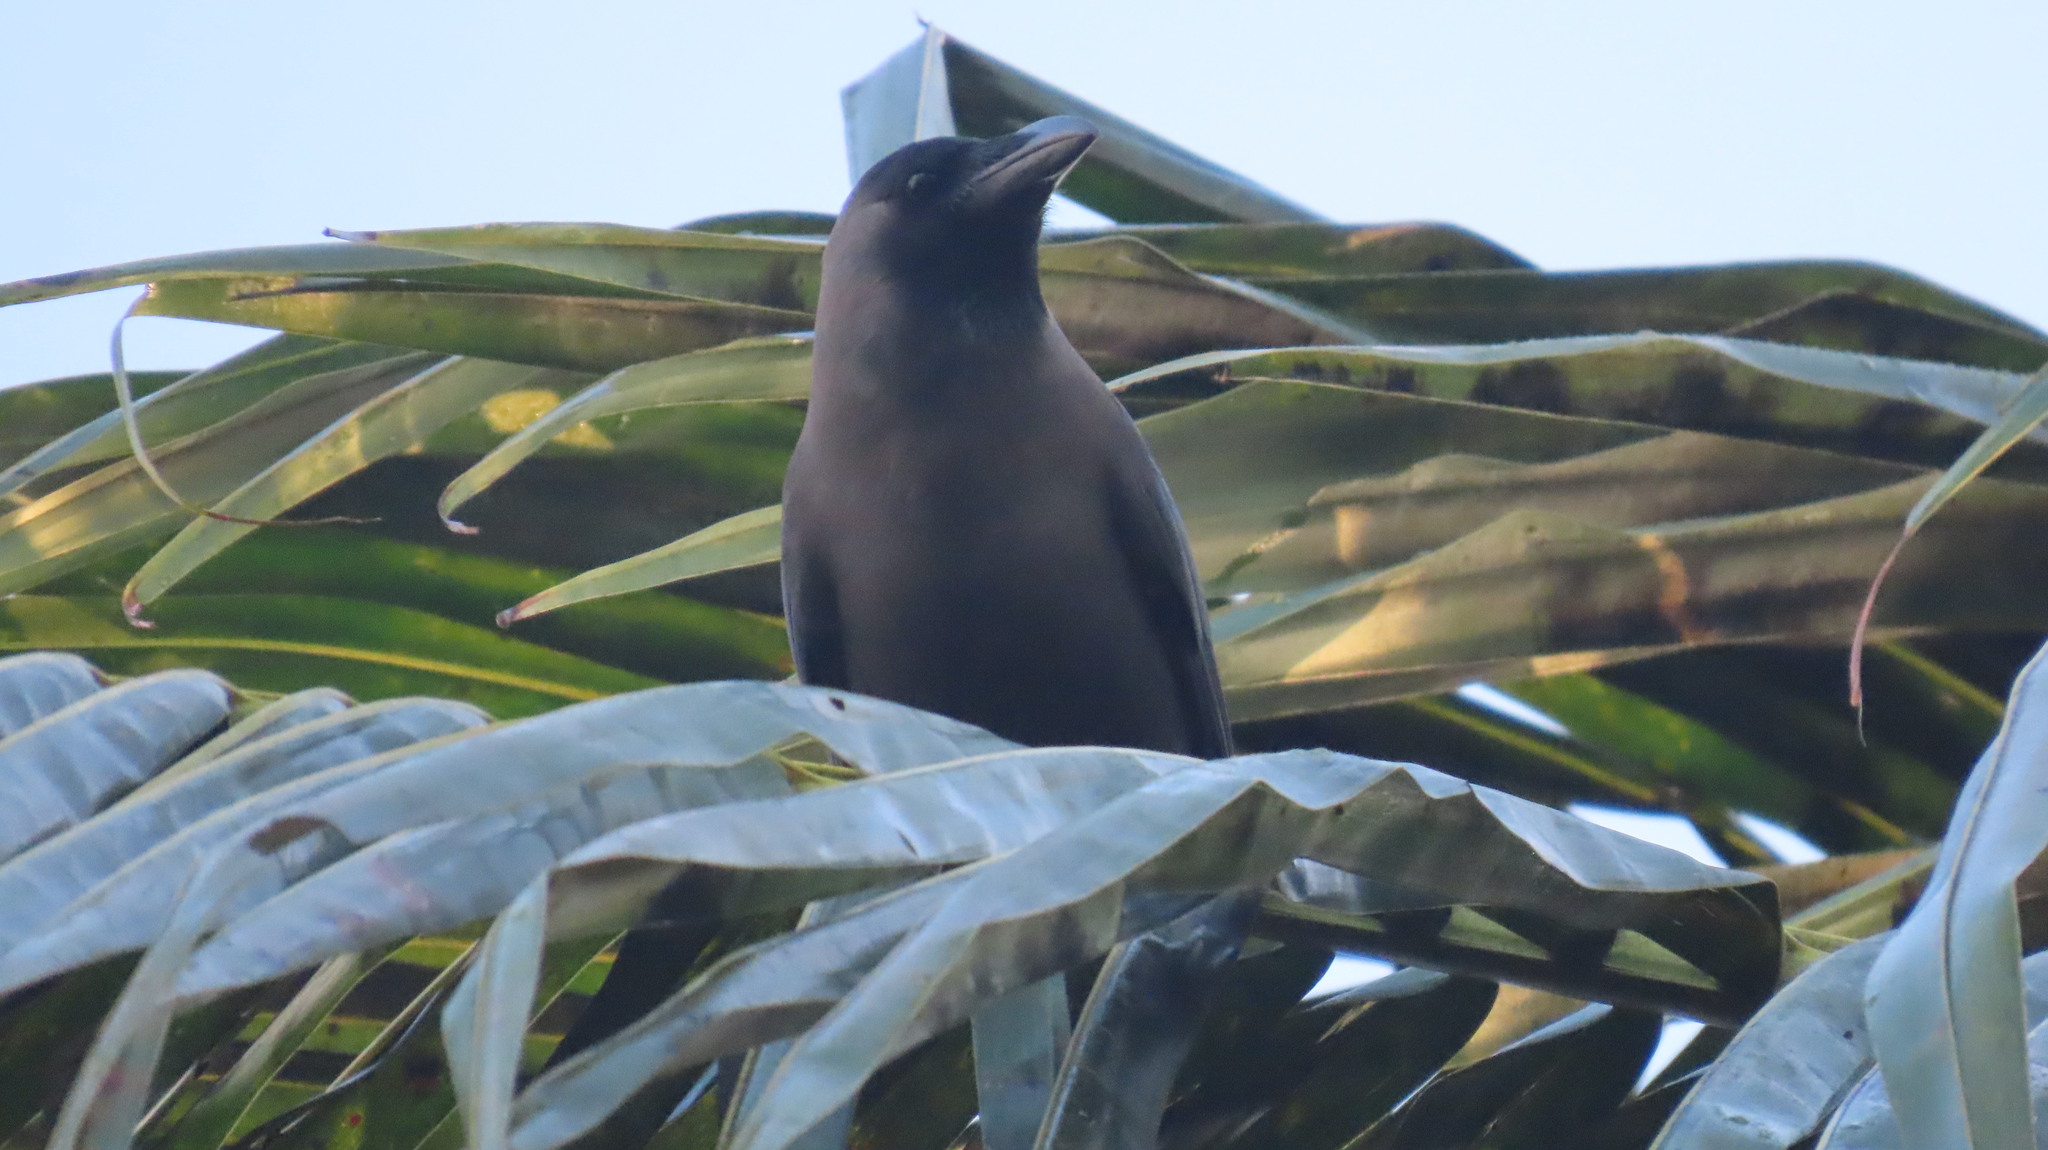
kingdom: Animalia
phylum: Chordata
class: Aves
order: Passeriformes
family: Corvidae
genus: Corvus
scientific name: Corvus splendens
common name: House crow
